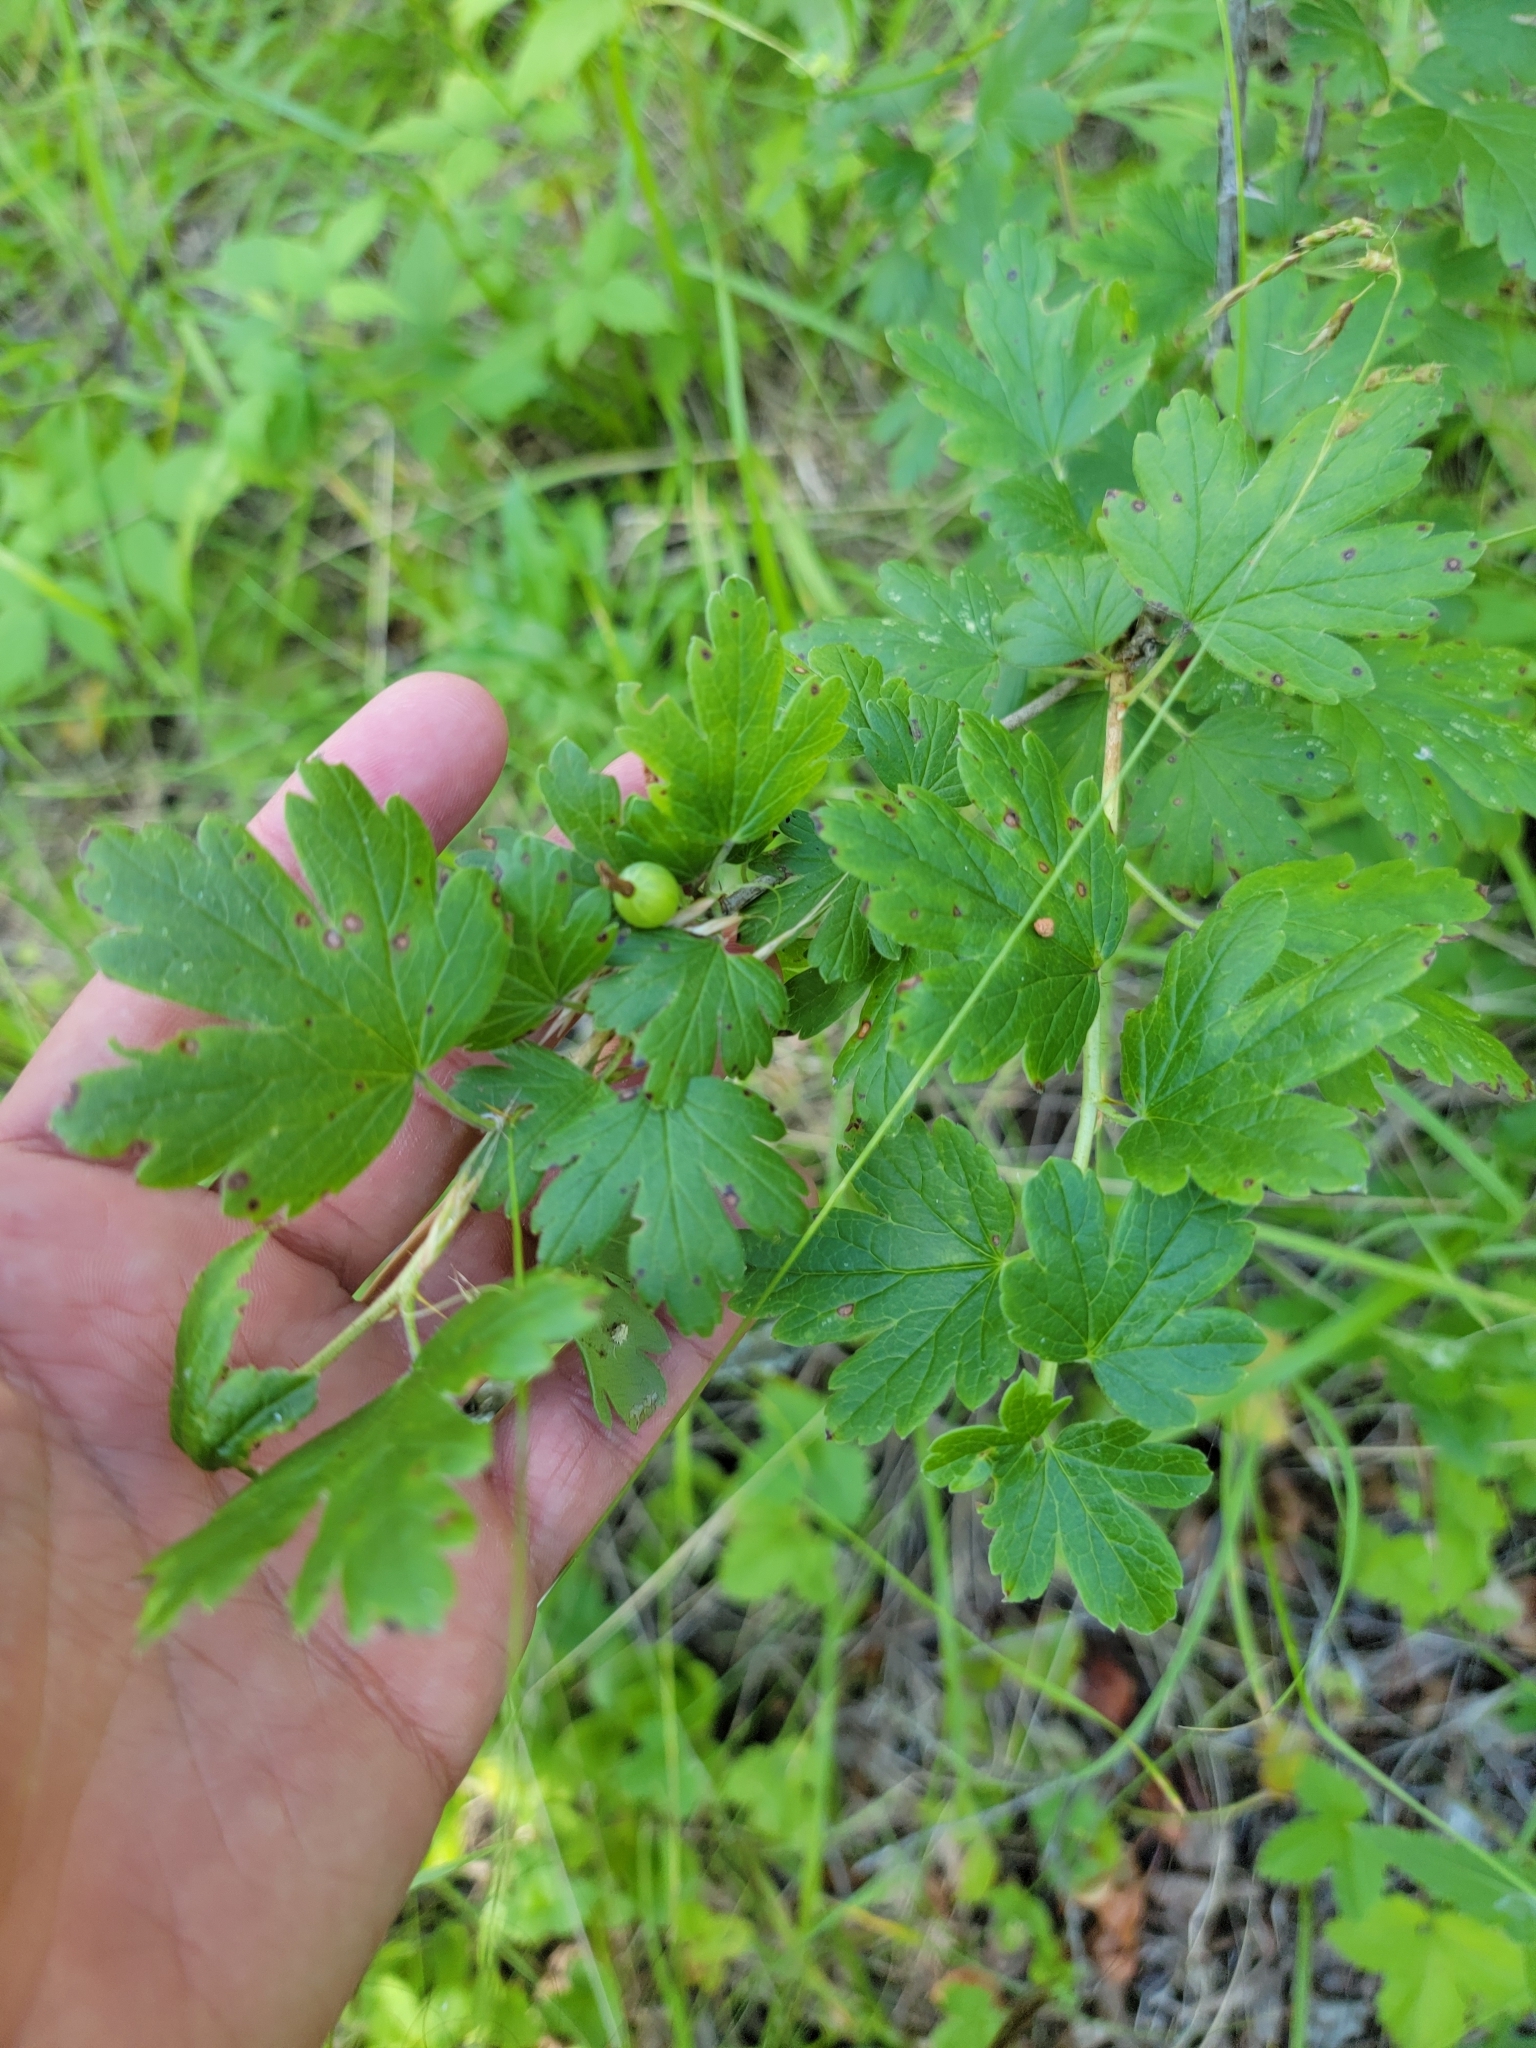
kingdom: Plantae
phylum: Tracheophyta
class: Magnoliopsida
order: Saxifragales
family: Grossulariaceae
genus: Ribes
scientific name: Ribes oxyacanthoides
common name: Northern gooseberry
